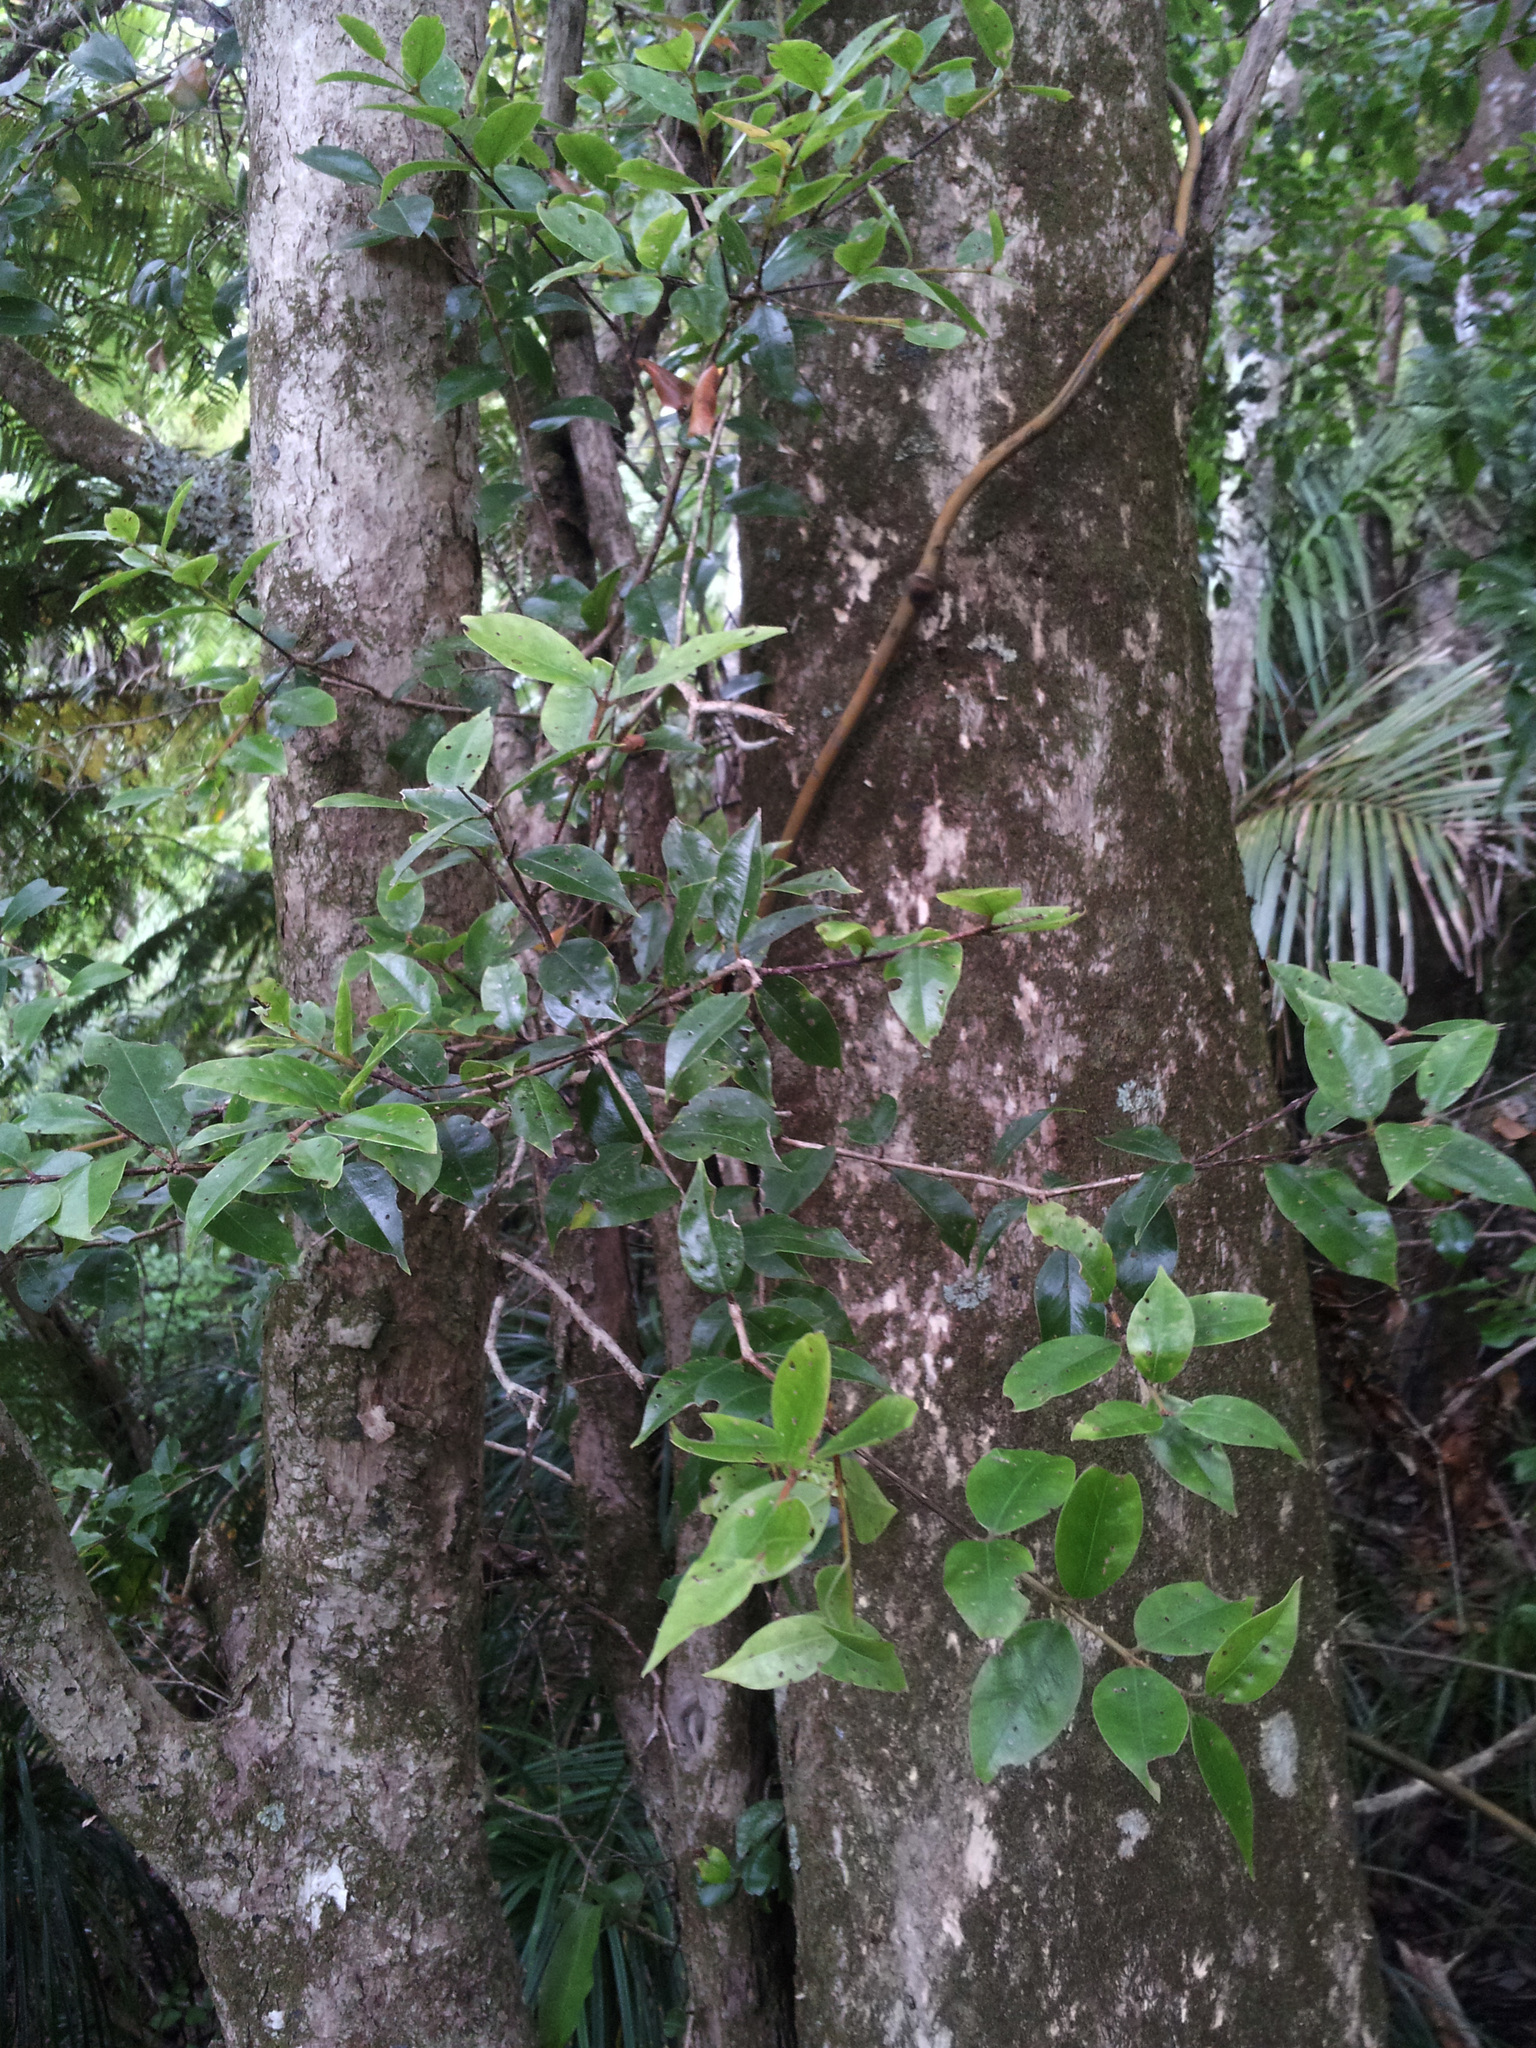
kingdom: Plantae
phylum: Tracheophyta
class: Magnoliopsida
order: Myrtales
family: Myrtaceae
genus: Metrosideros
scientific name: Metrosideros bartlettii
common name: Bartlett's rata
